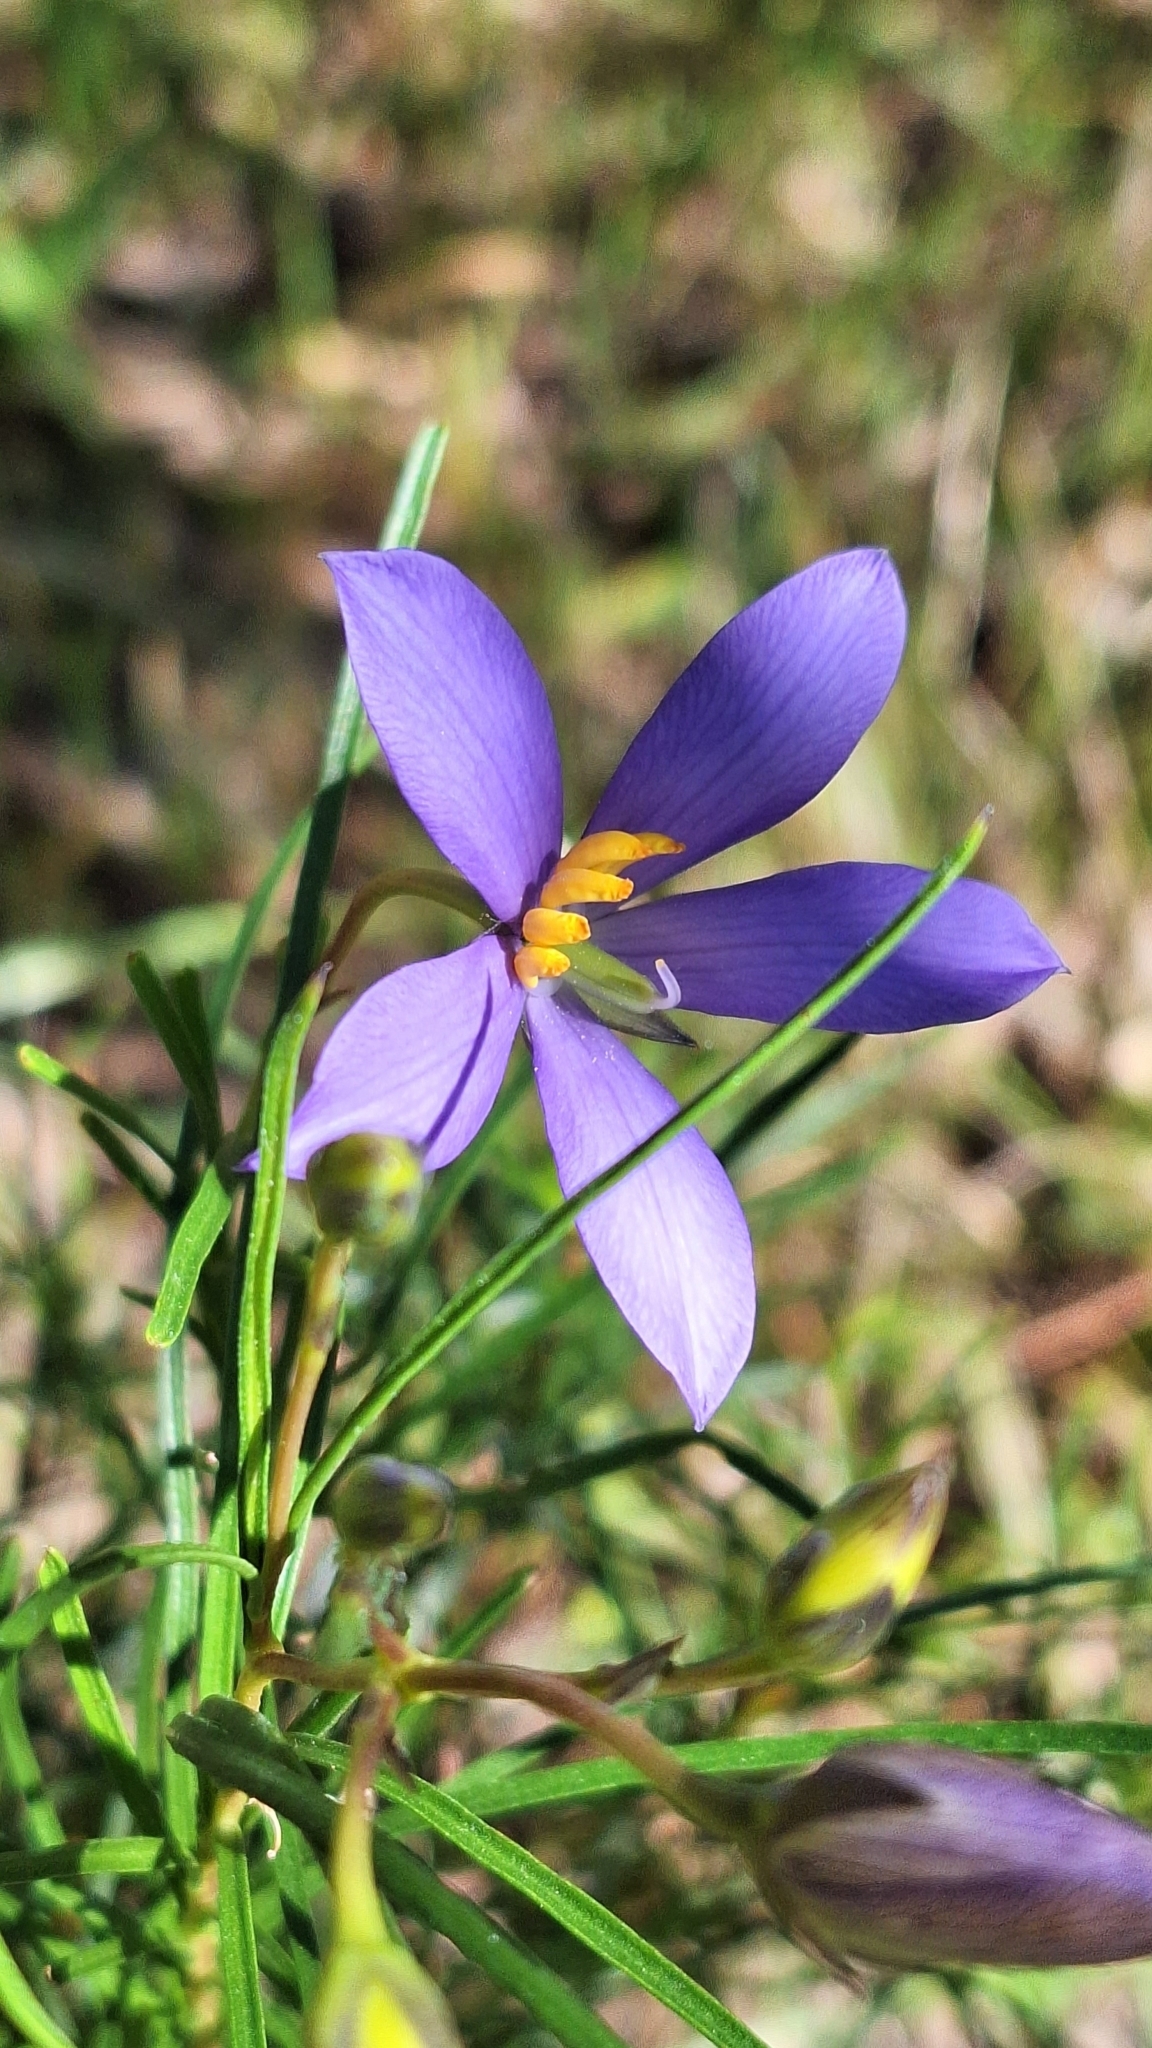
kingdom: Plantae
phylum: Tracheophyta
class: Magnoliopsida
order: Apiales
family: Pittosporaceae
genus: Cheiranthera
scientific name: Cheiranthera alternifolia
